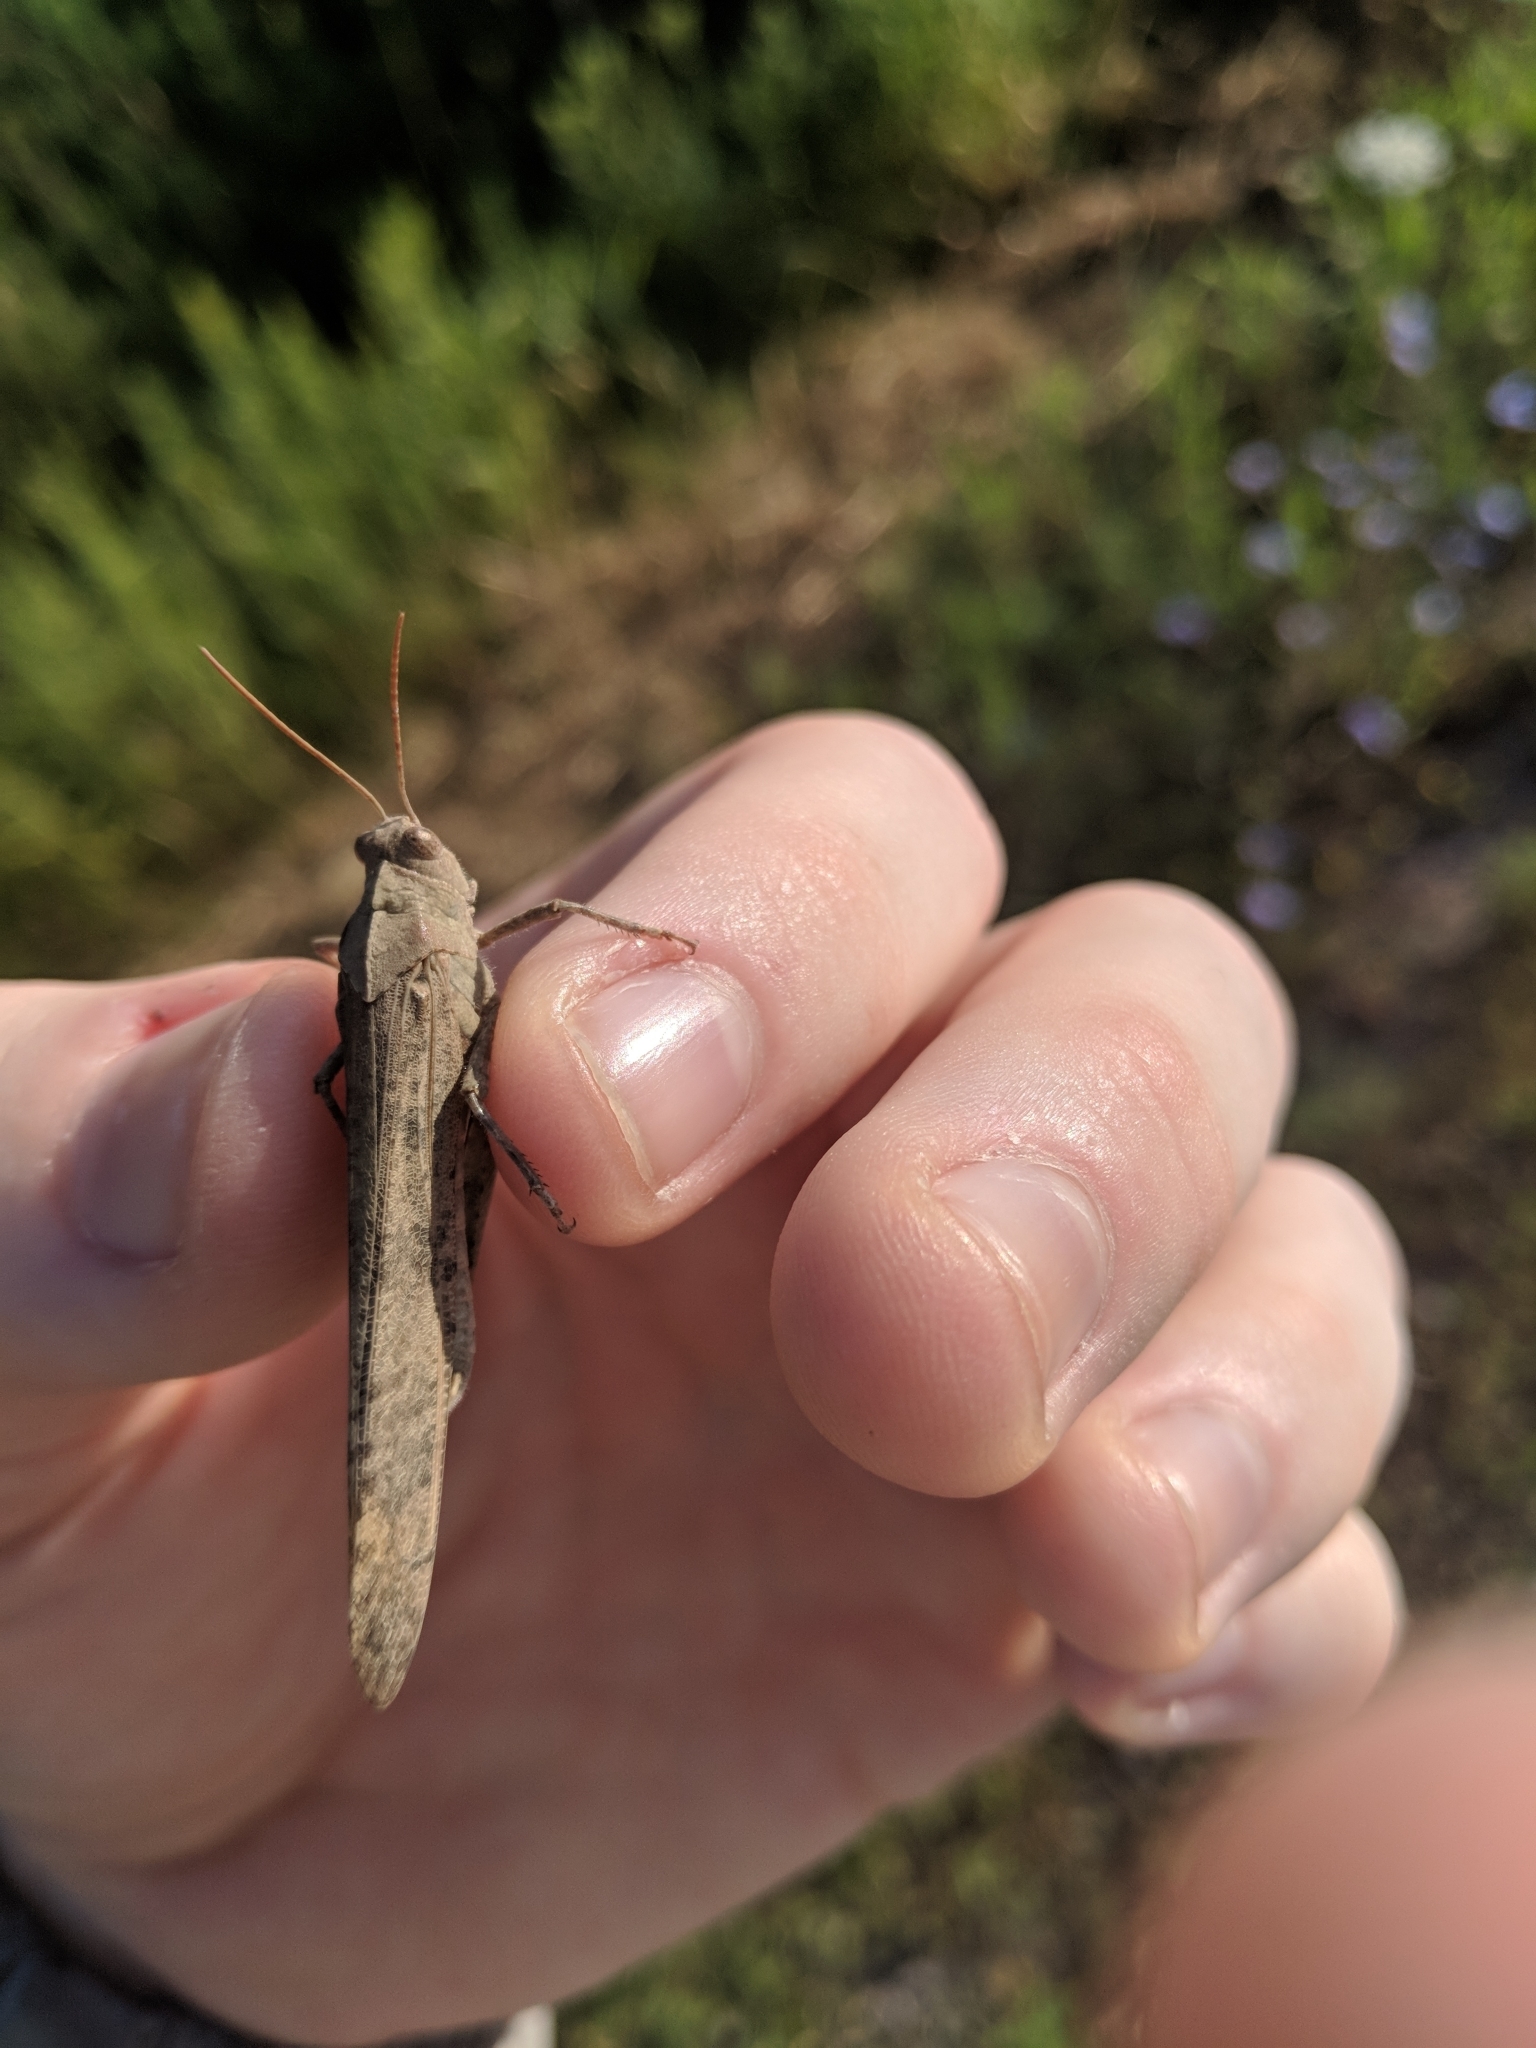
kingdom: Animalia
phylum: Arthropoda
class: Insecta
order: Orthoptera
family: Acrididae
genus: Dissosteira
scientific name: Dissosteira carolina
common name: Carolina grasshopper
